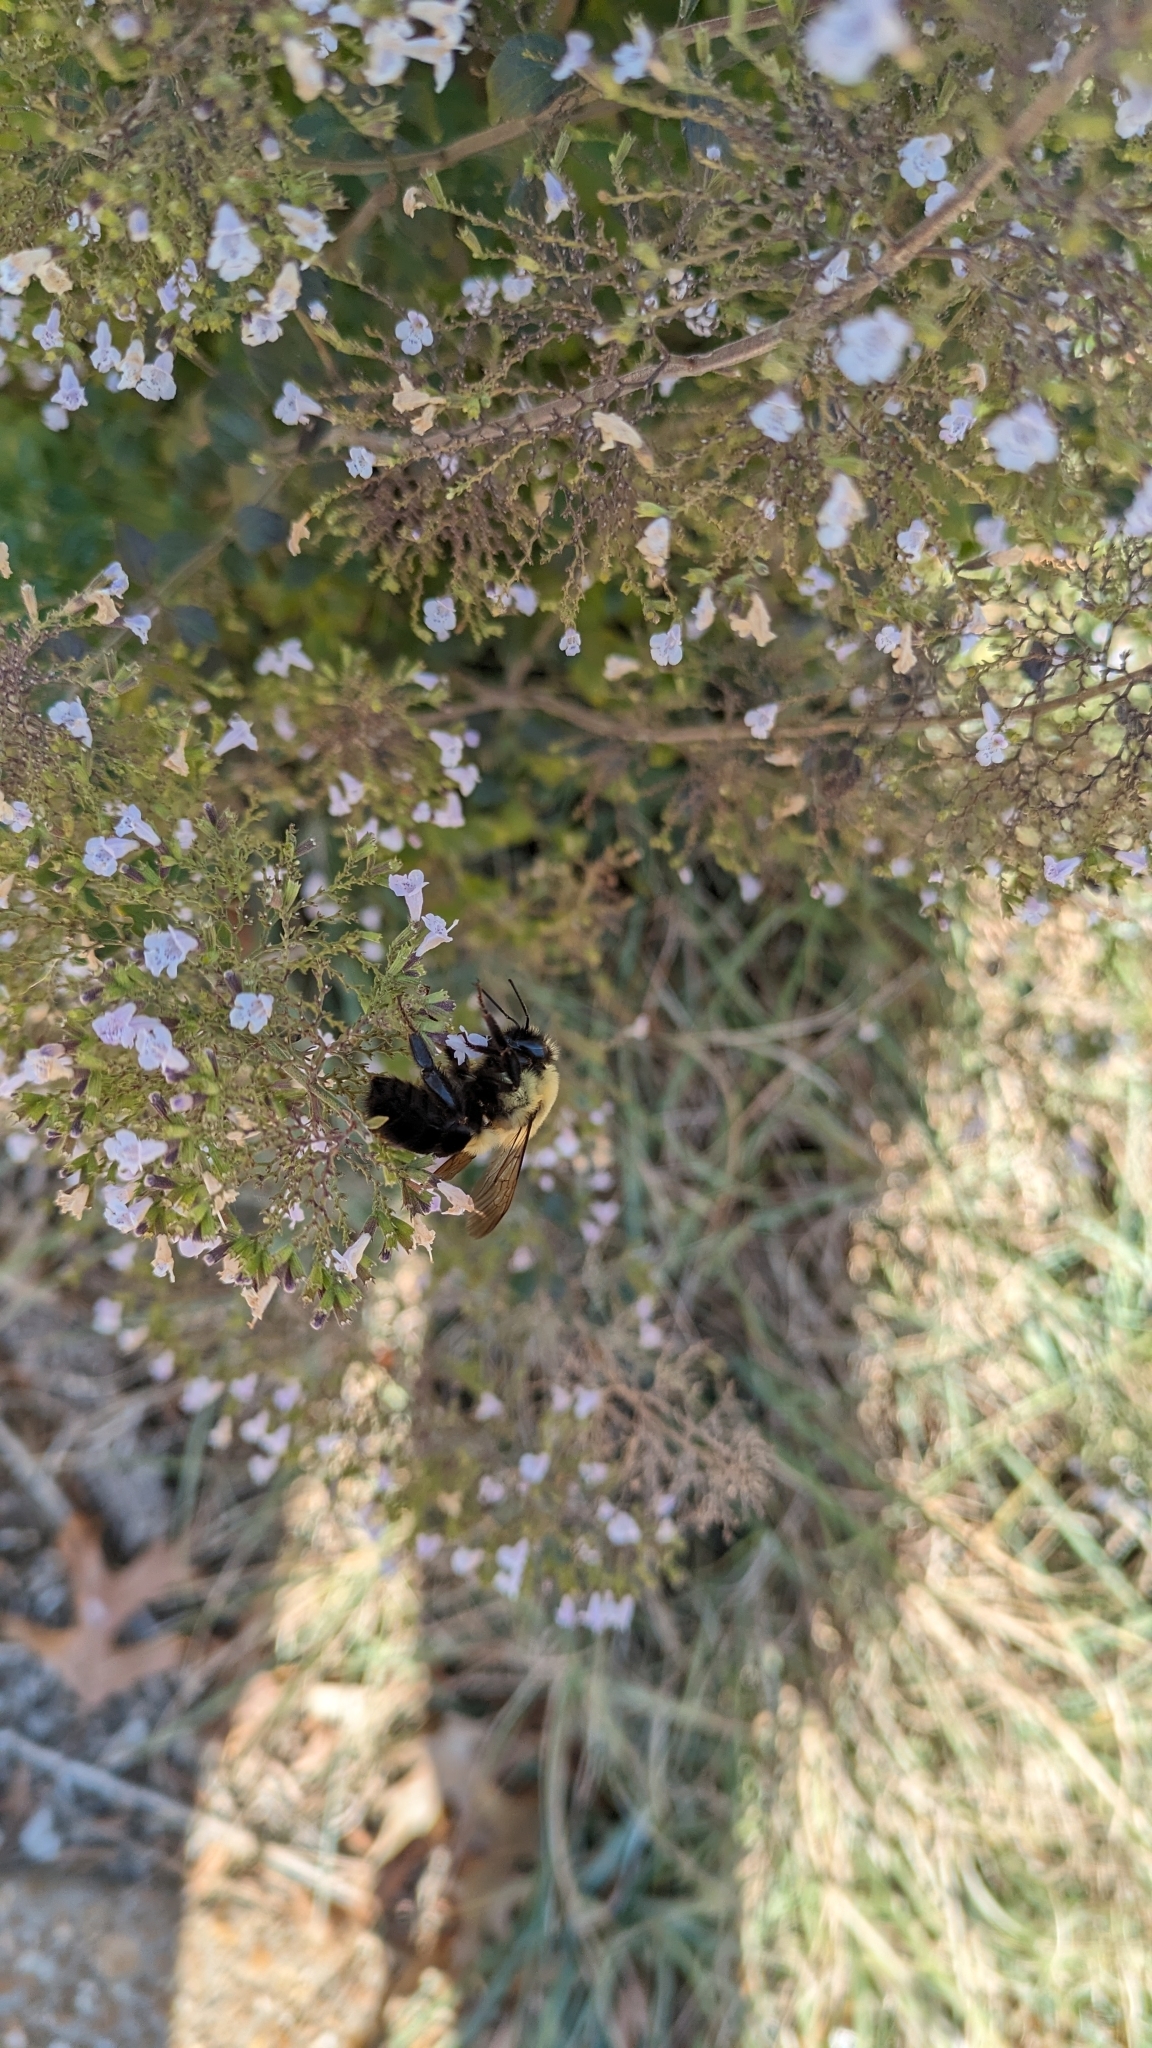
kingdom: Animalia
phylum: Arthropoda
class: Insecta
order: Hymenoptera
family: Apidae
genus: Bombus
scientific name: Bombus impatiens
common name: Common eastern bumble bee
